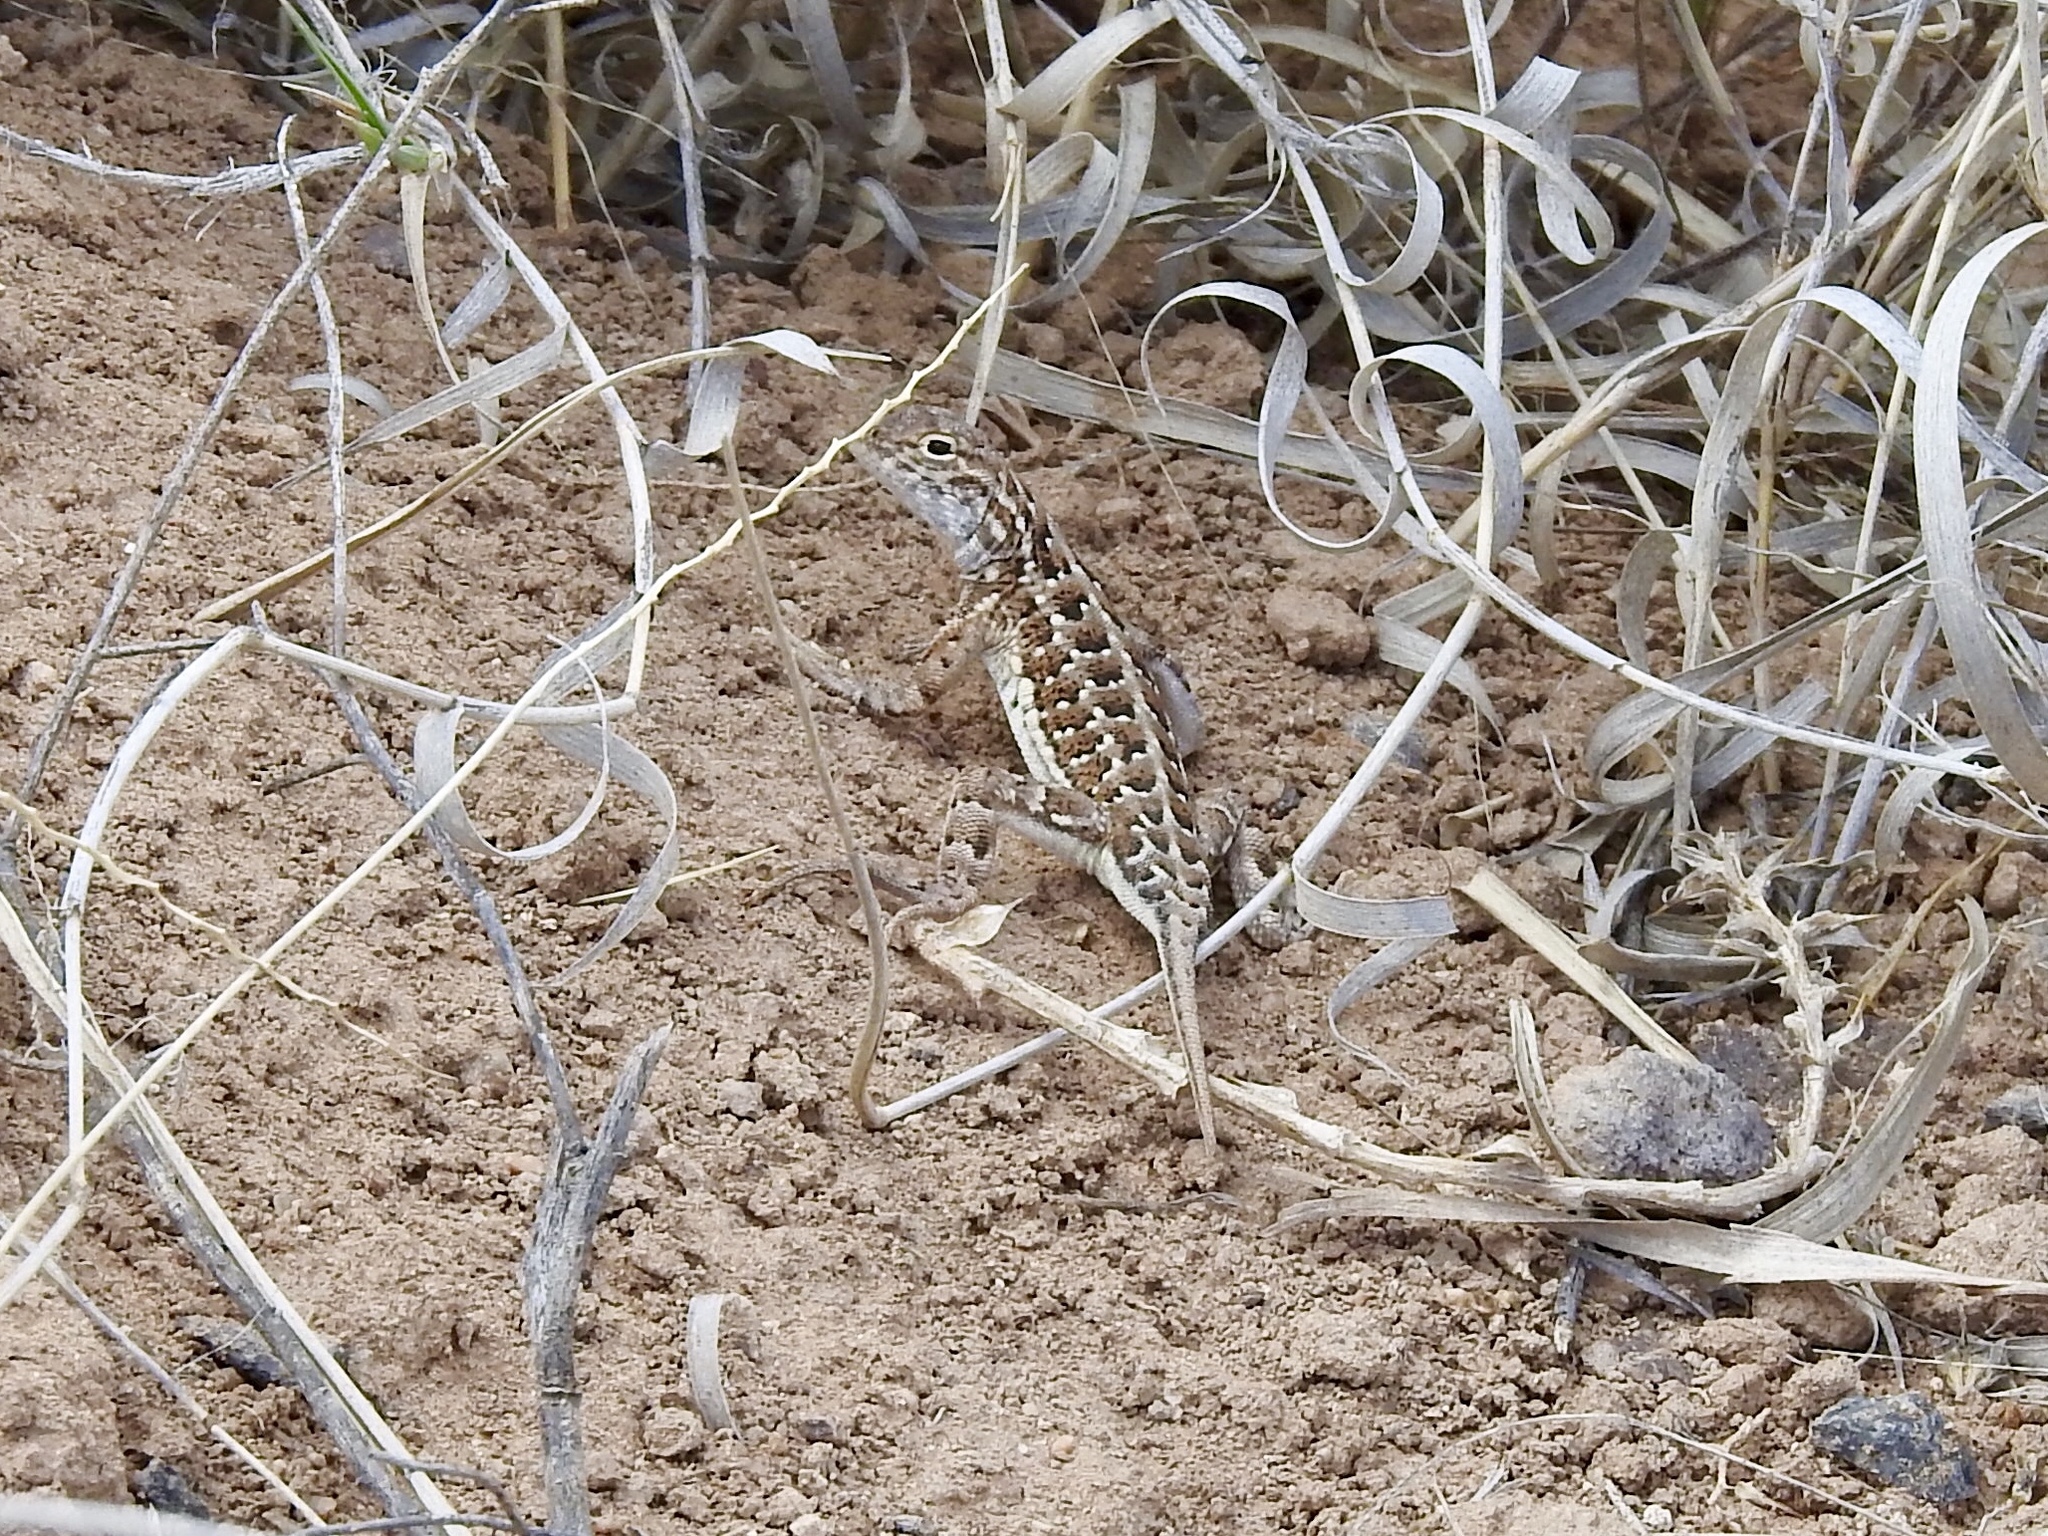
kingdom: Animalia
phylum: Chordata
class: Squamata
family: Phrynosomatidae
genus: Holbrookia
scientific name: Holbrookia maculata
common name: Lesser earless lizard
